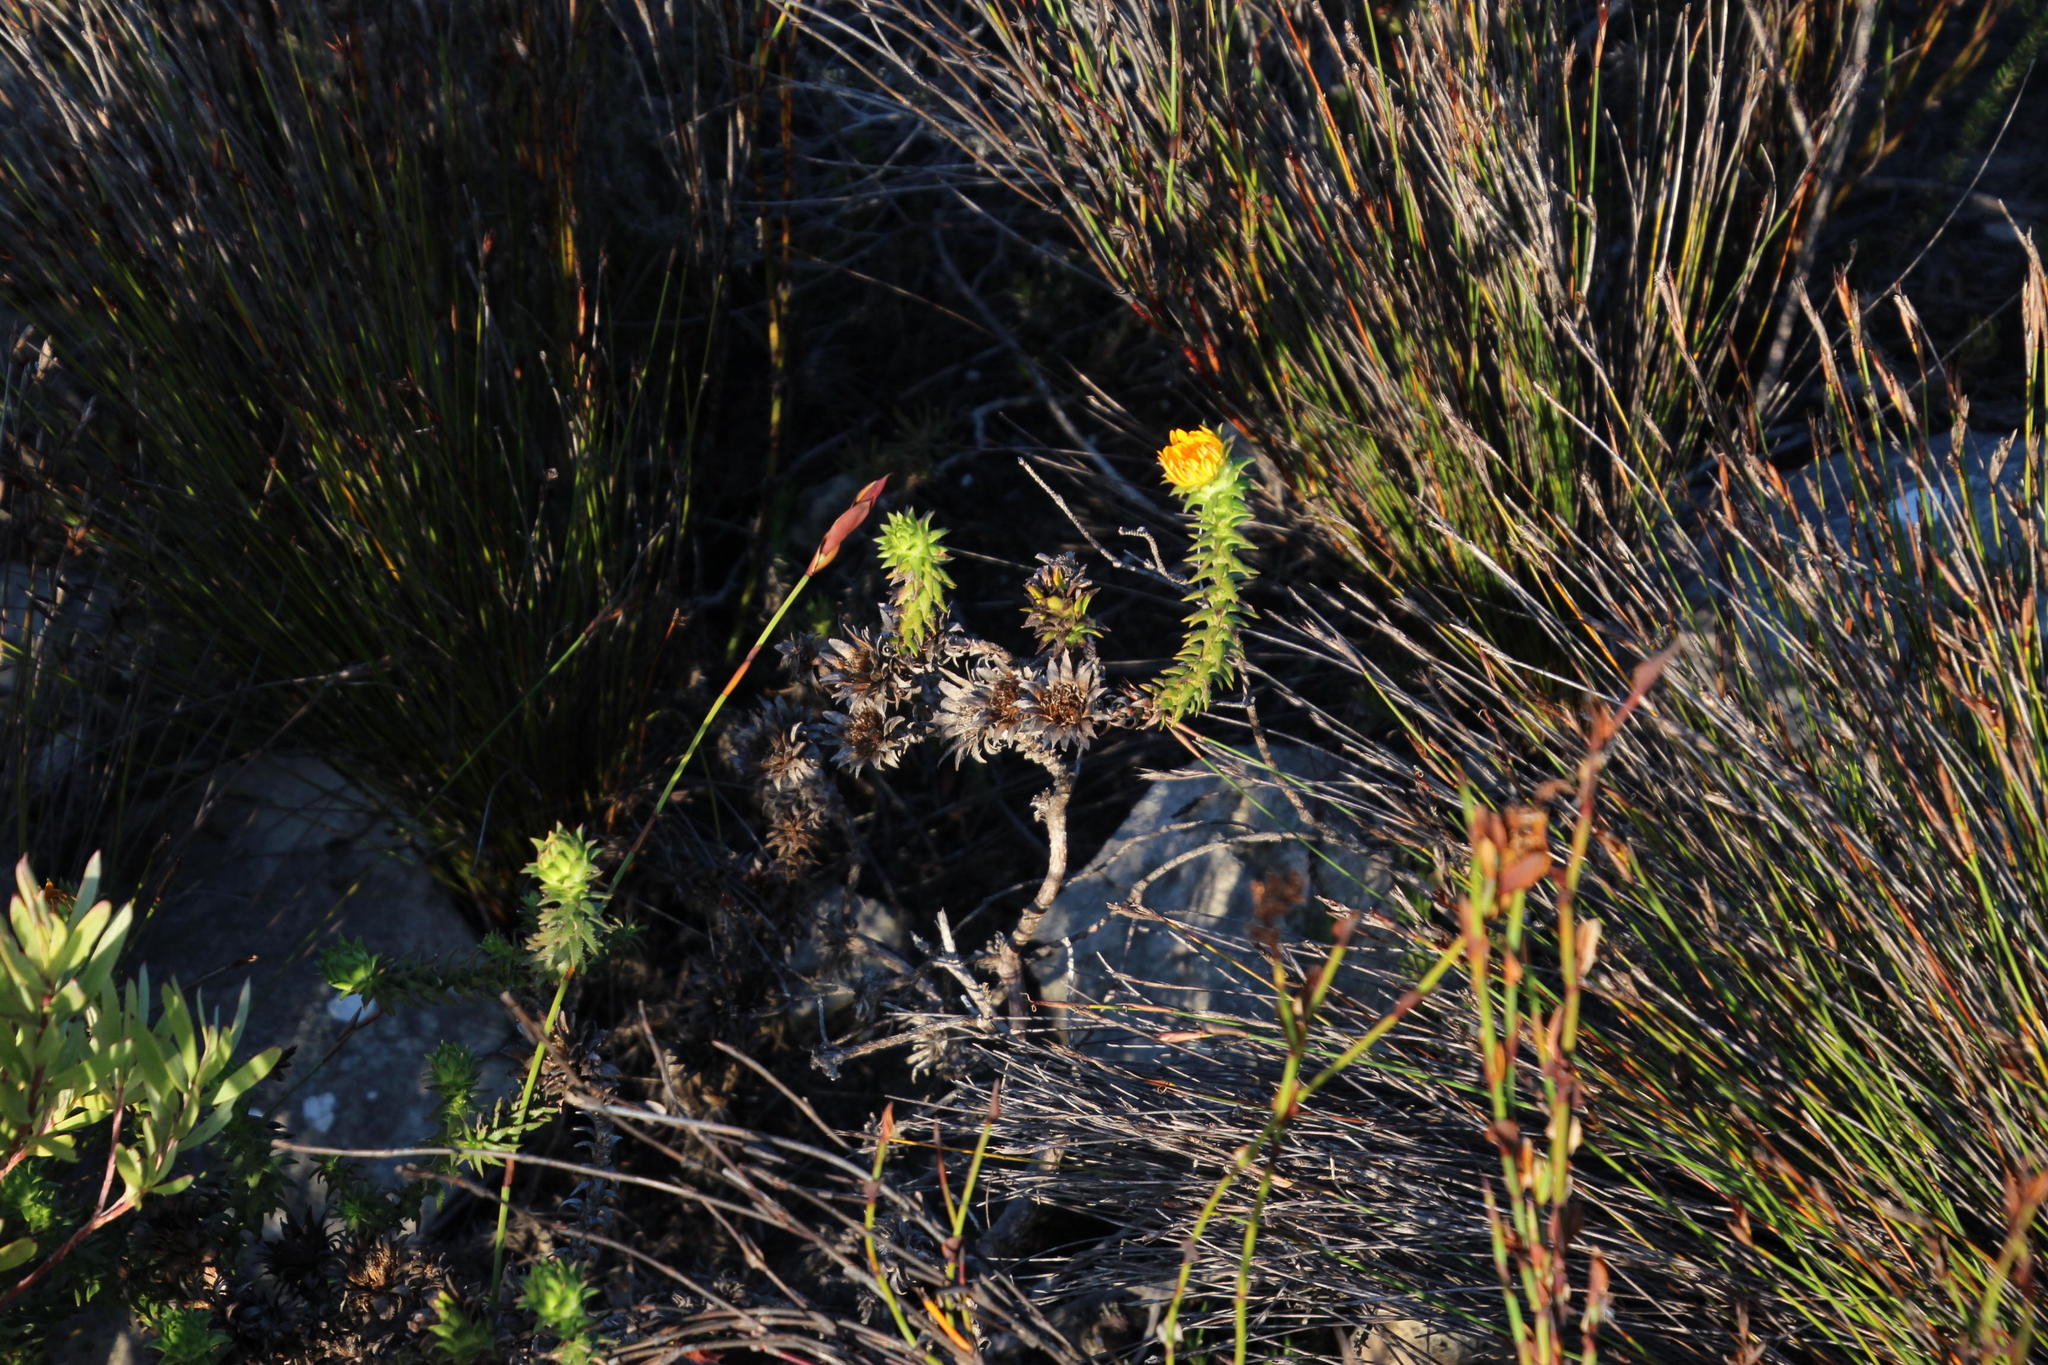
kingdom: Plantae
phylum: Tracheophyta
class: Magnoliopsida
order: Asterales
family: Asteraceae
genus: Oedera
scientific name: Oedera imbricata
